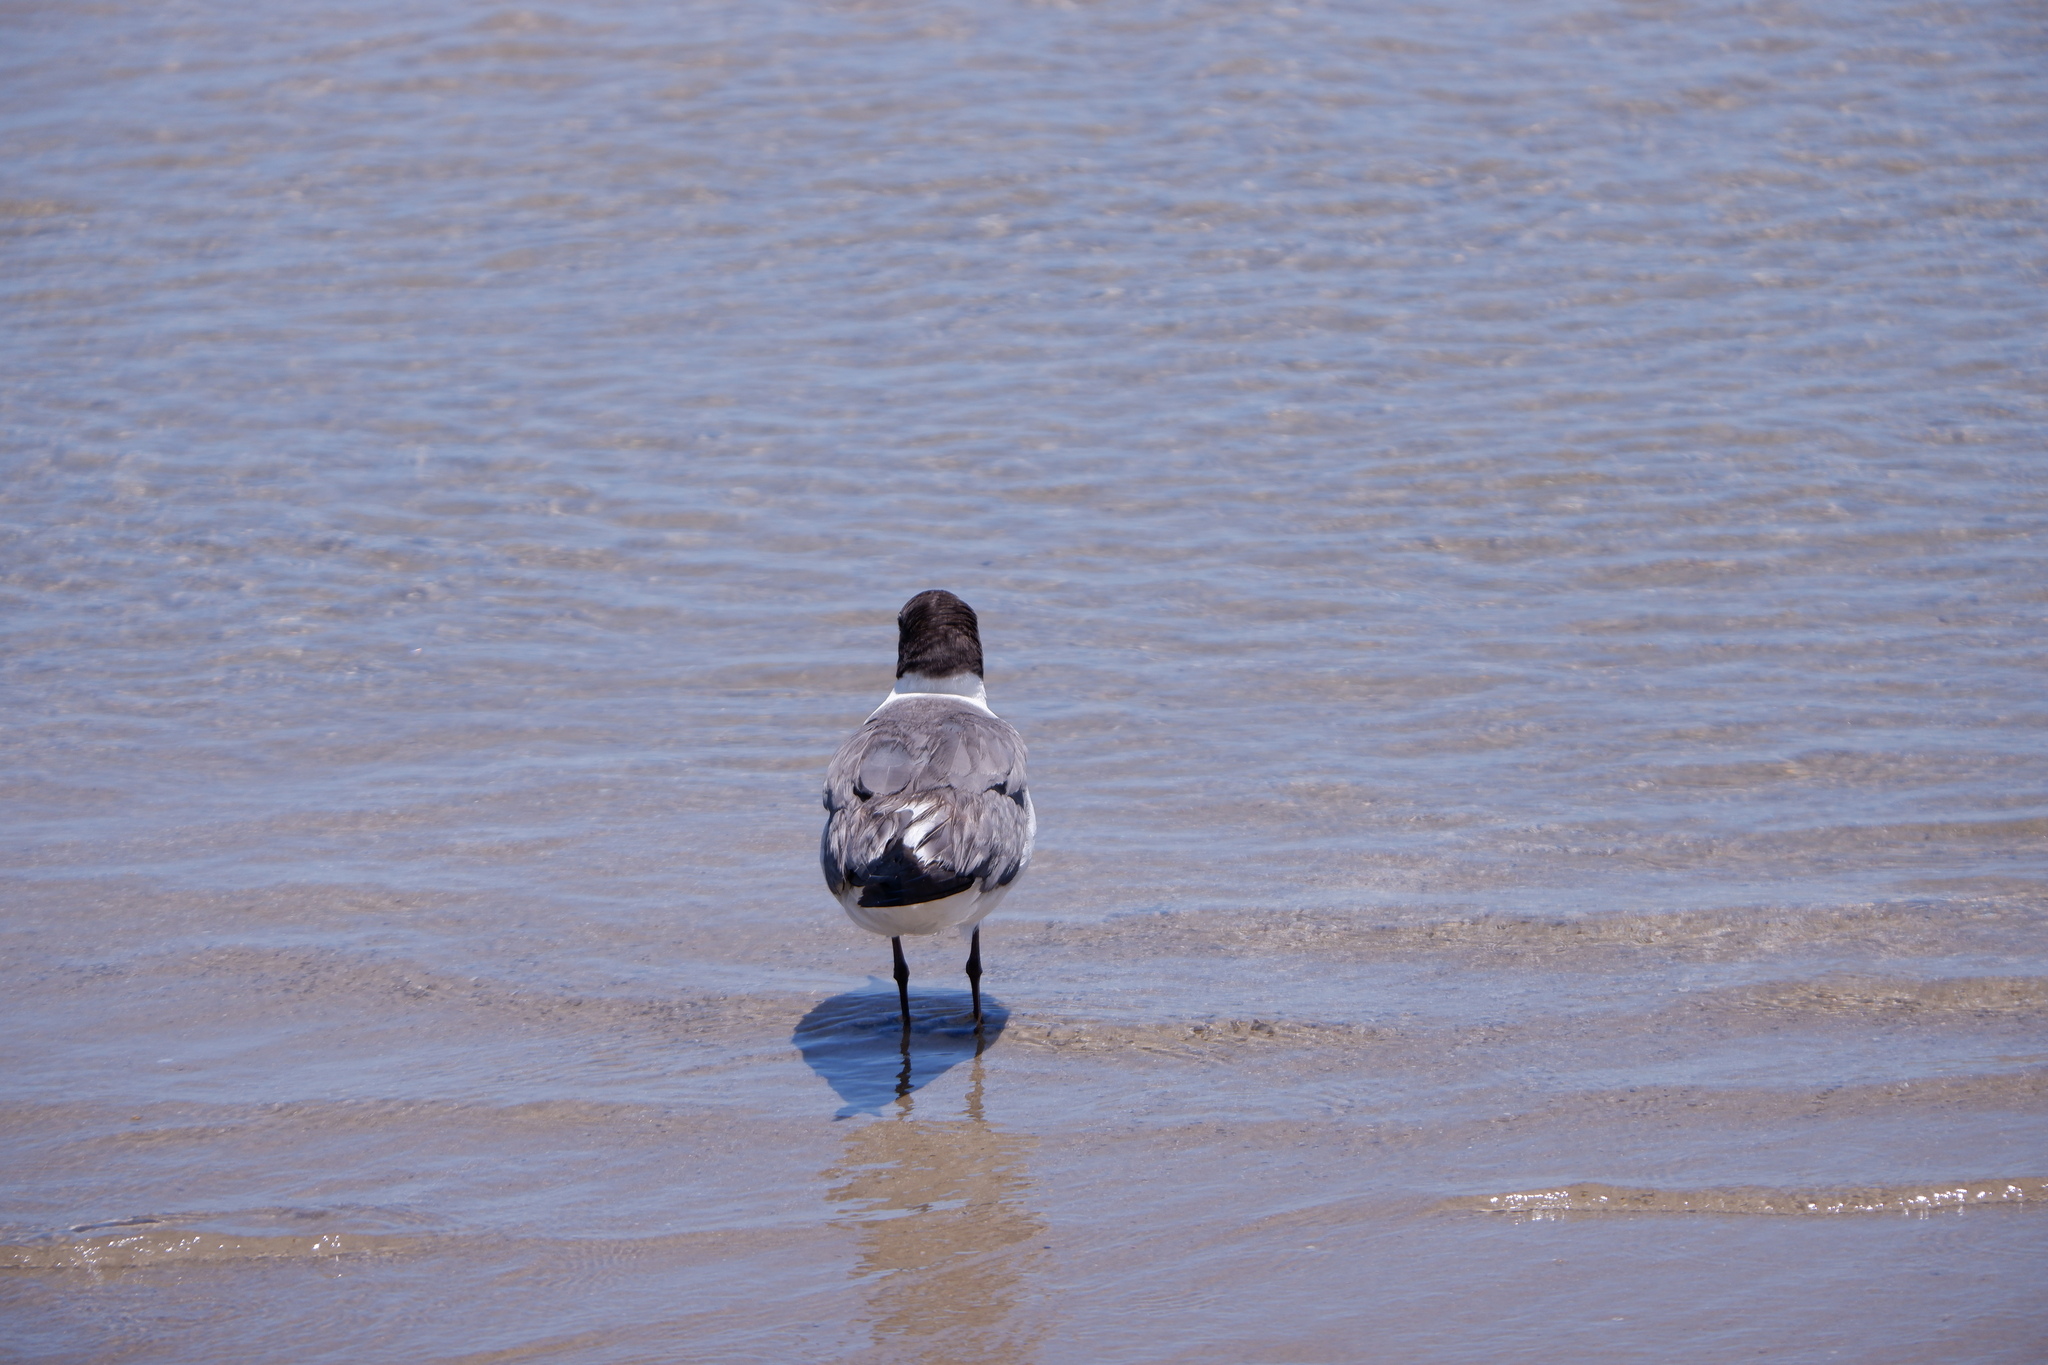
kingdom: Animalia
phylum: Chordata
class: Aves
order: Charadriiformes
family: Laridae
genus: Leucophaeus
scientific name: Leucophaeus atricilla
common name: Laughing gull
